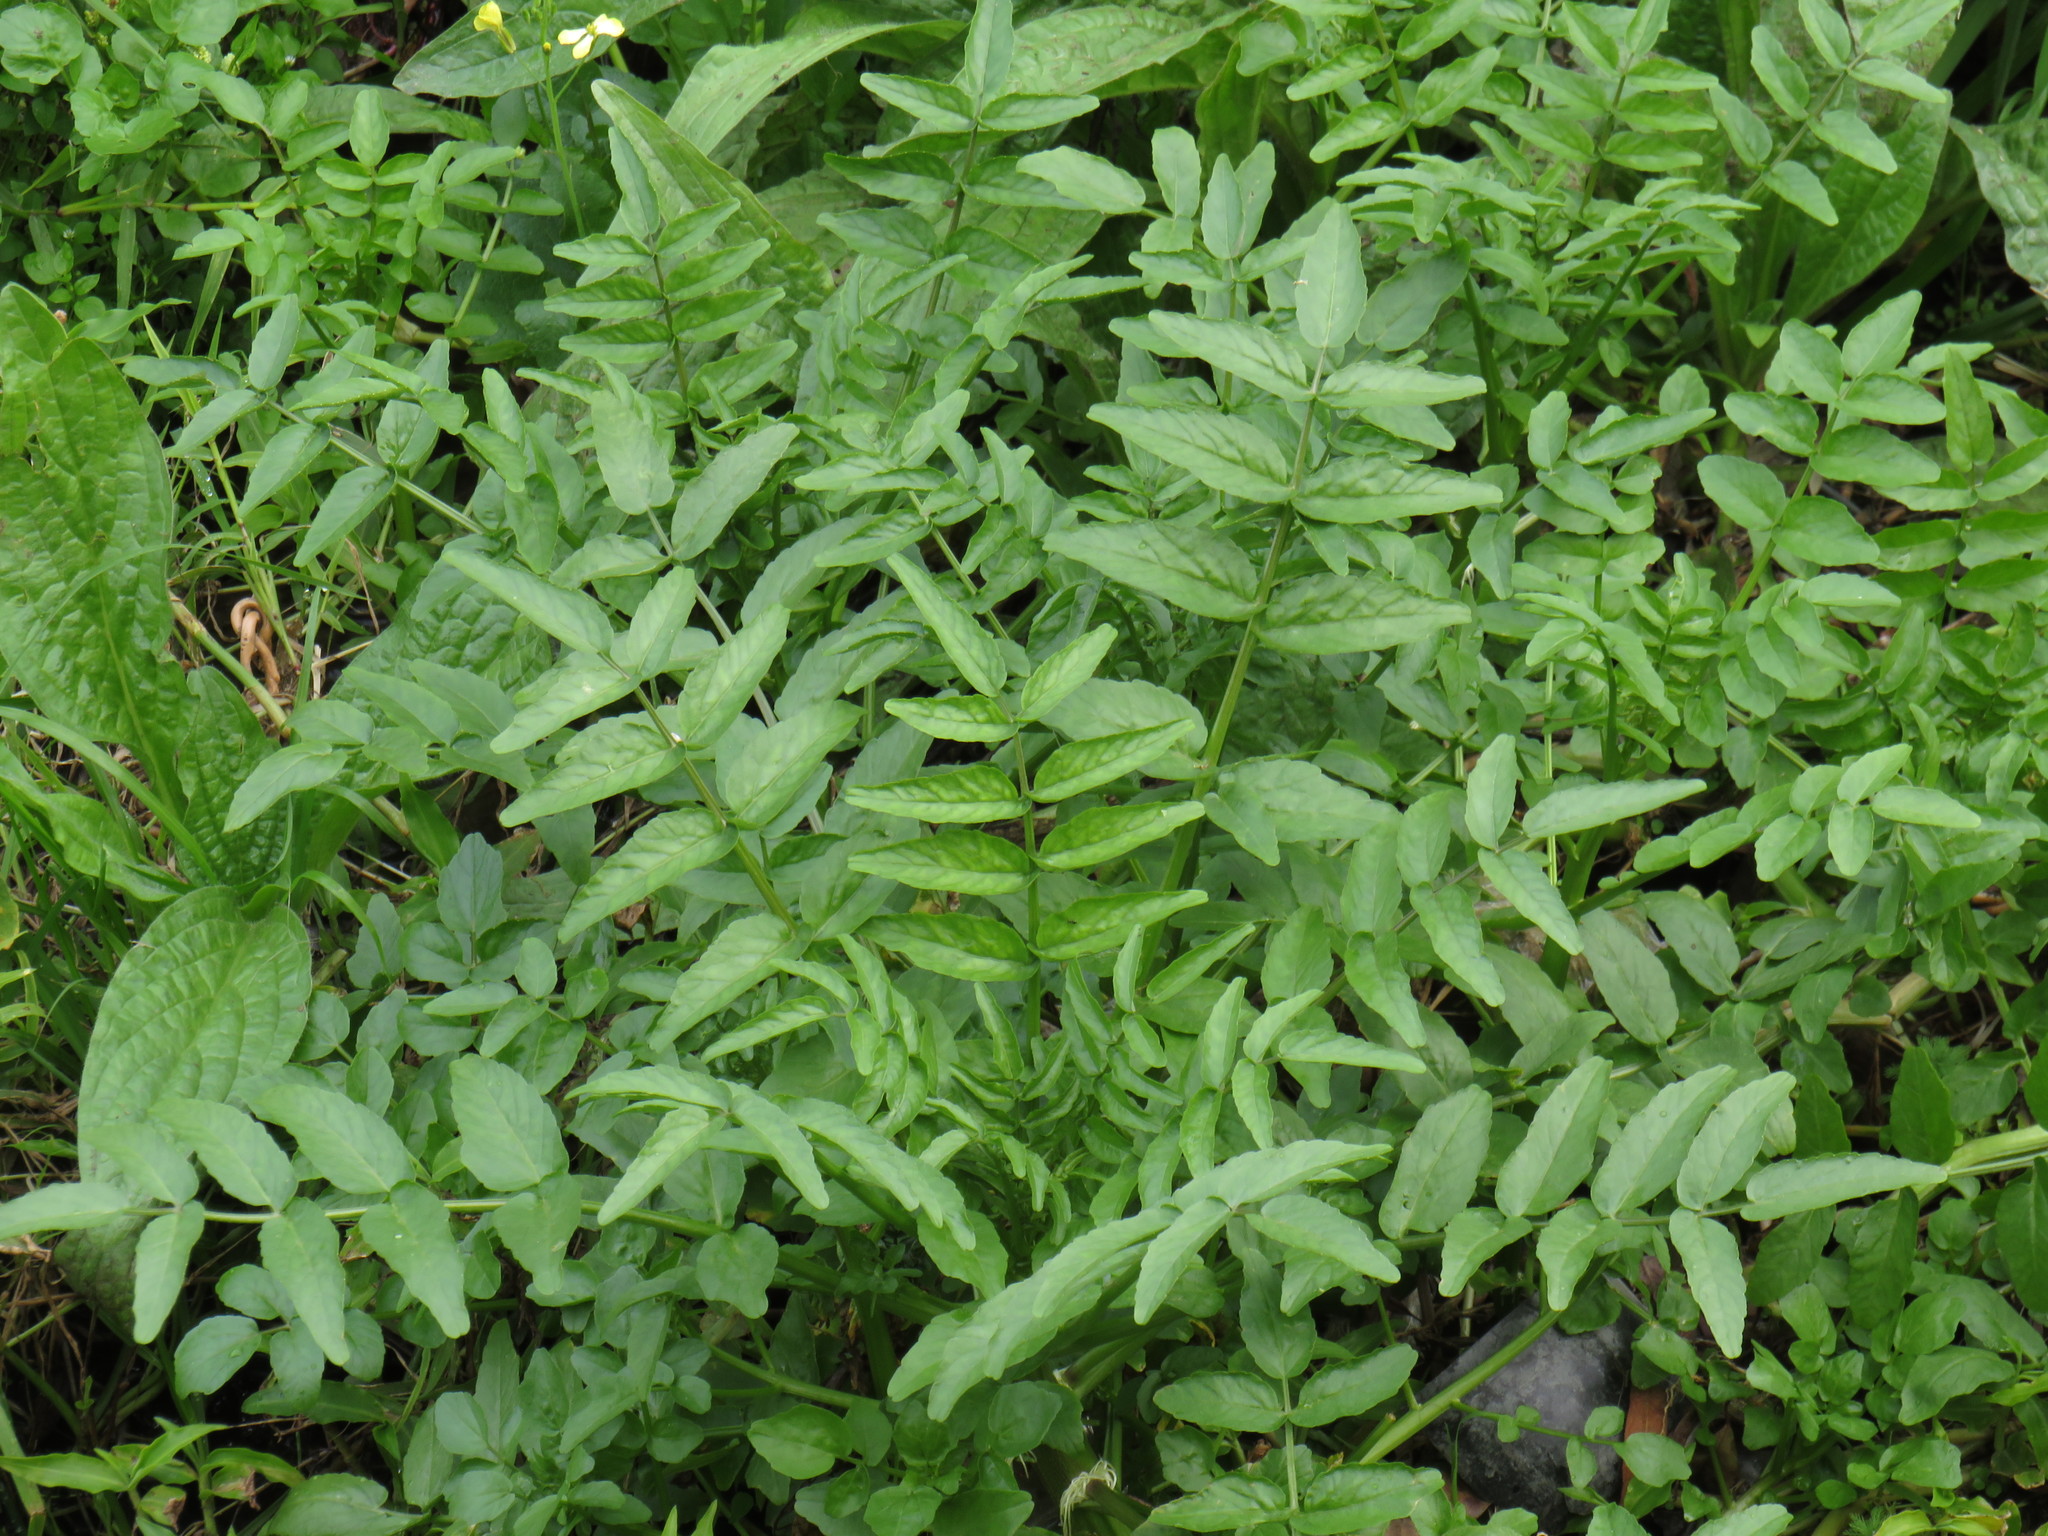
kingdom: Plantae
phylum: Tracheophyta
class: Magnoliopsida
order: Brassicales
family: Brassicaceae
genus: Nasturtium
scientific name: Nasturtium officinale
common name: Watercress
